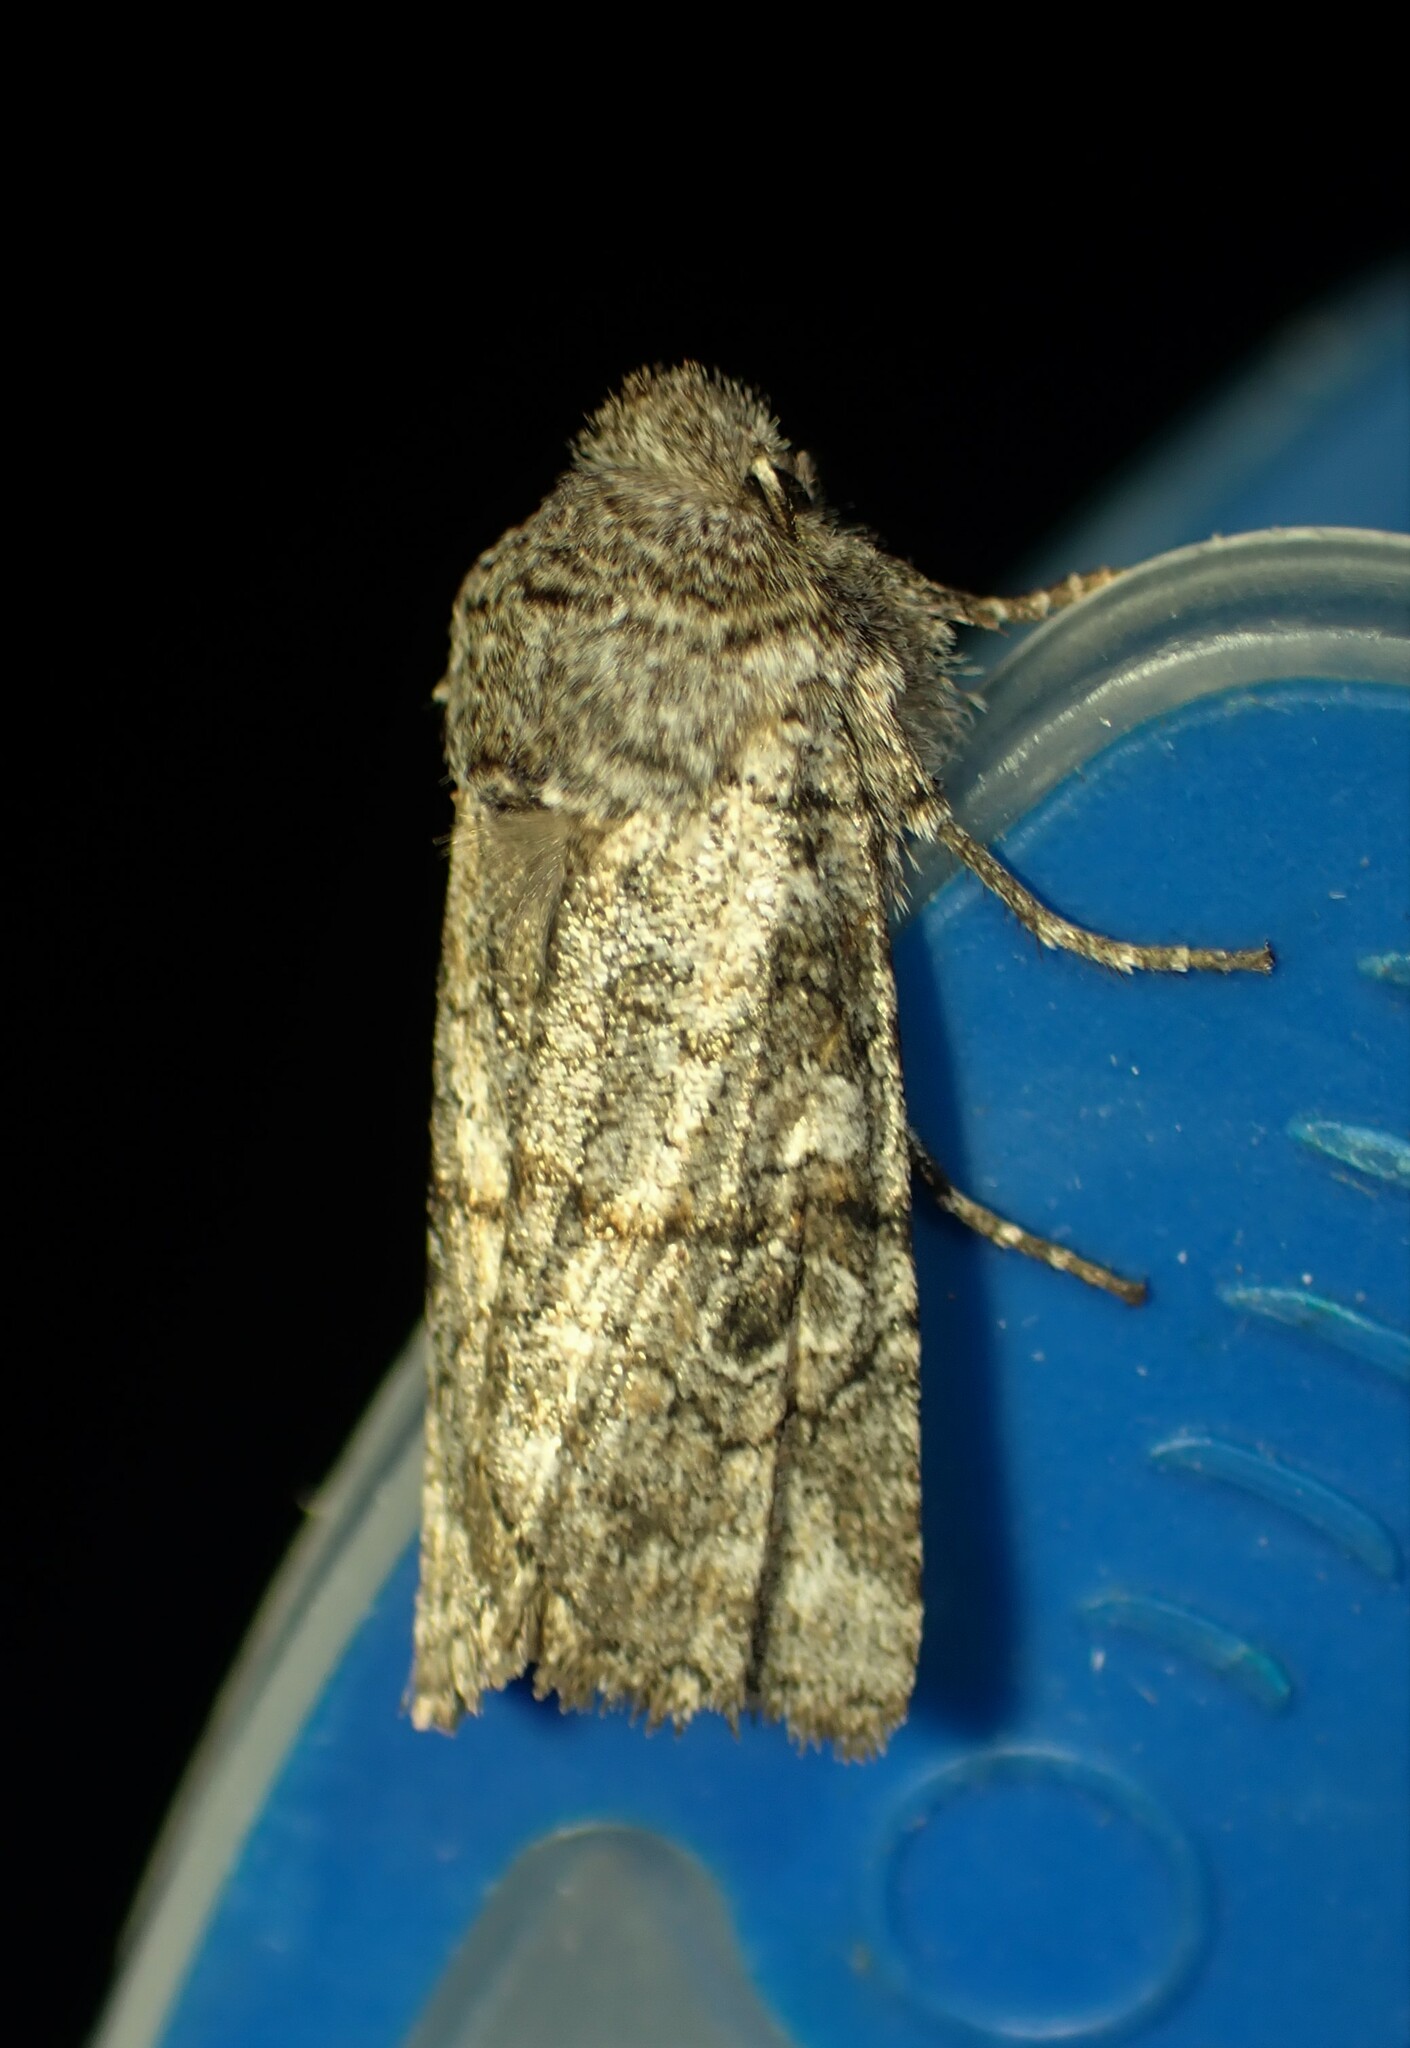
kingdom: Animalia
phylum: Arthropoda
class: Insecta
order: Lepidoptera
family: Noctuidae
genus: Litholomia
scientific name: Litholomia napaea
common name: False pinion moth
